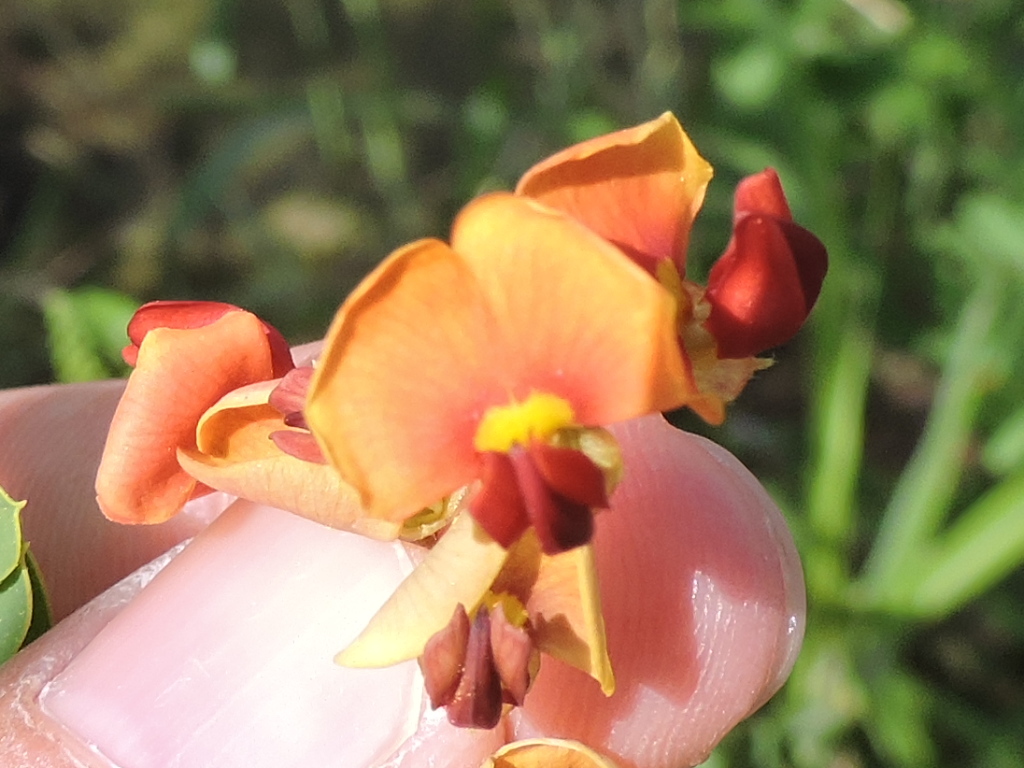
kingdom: Plantae
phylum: Tracheophyta
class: Magnoliopsida
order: Fabales
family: Fabaceae
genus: Sesbania
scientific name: Sesbania vesicaria
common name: Bagpod
